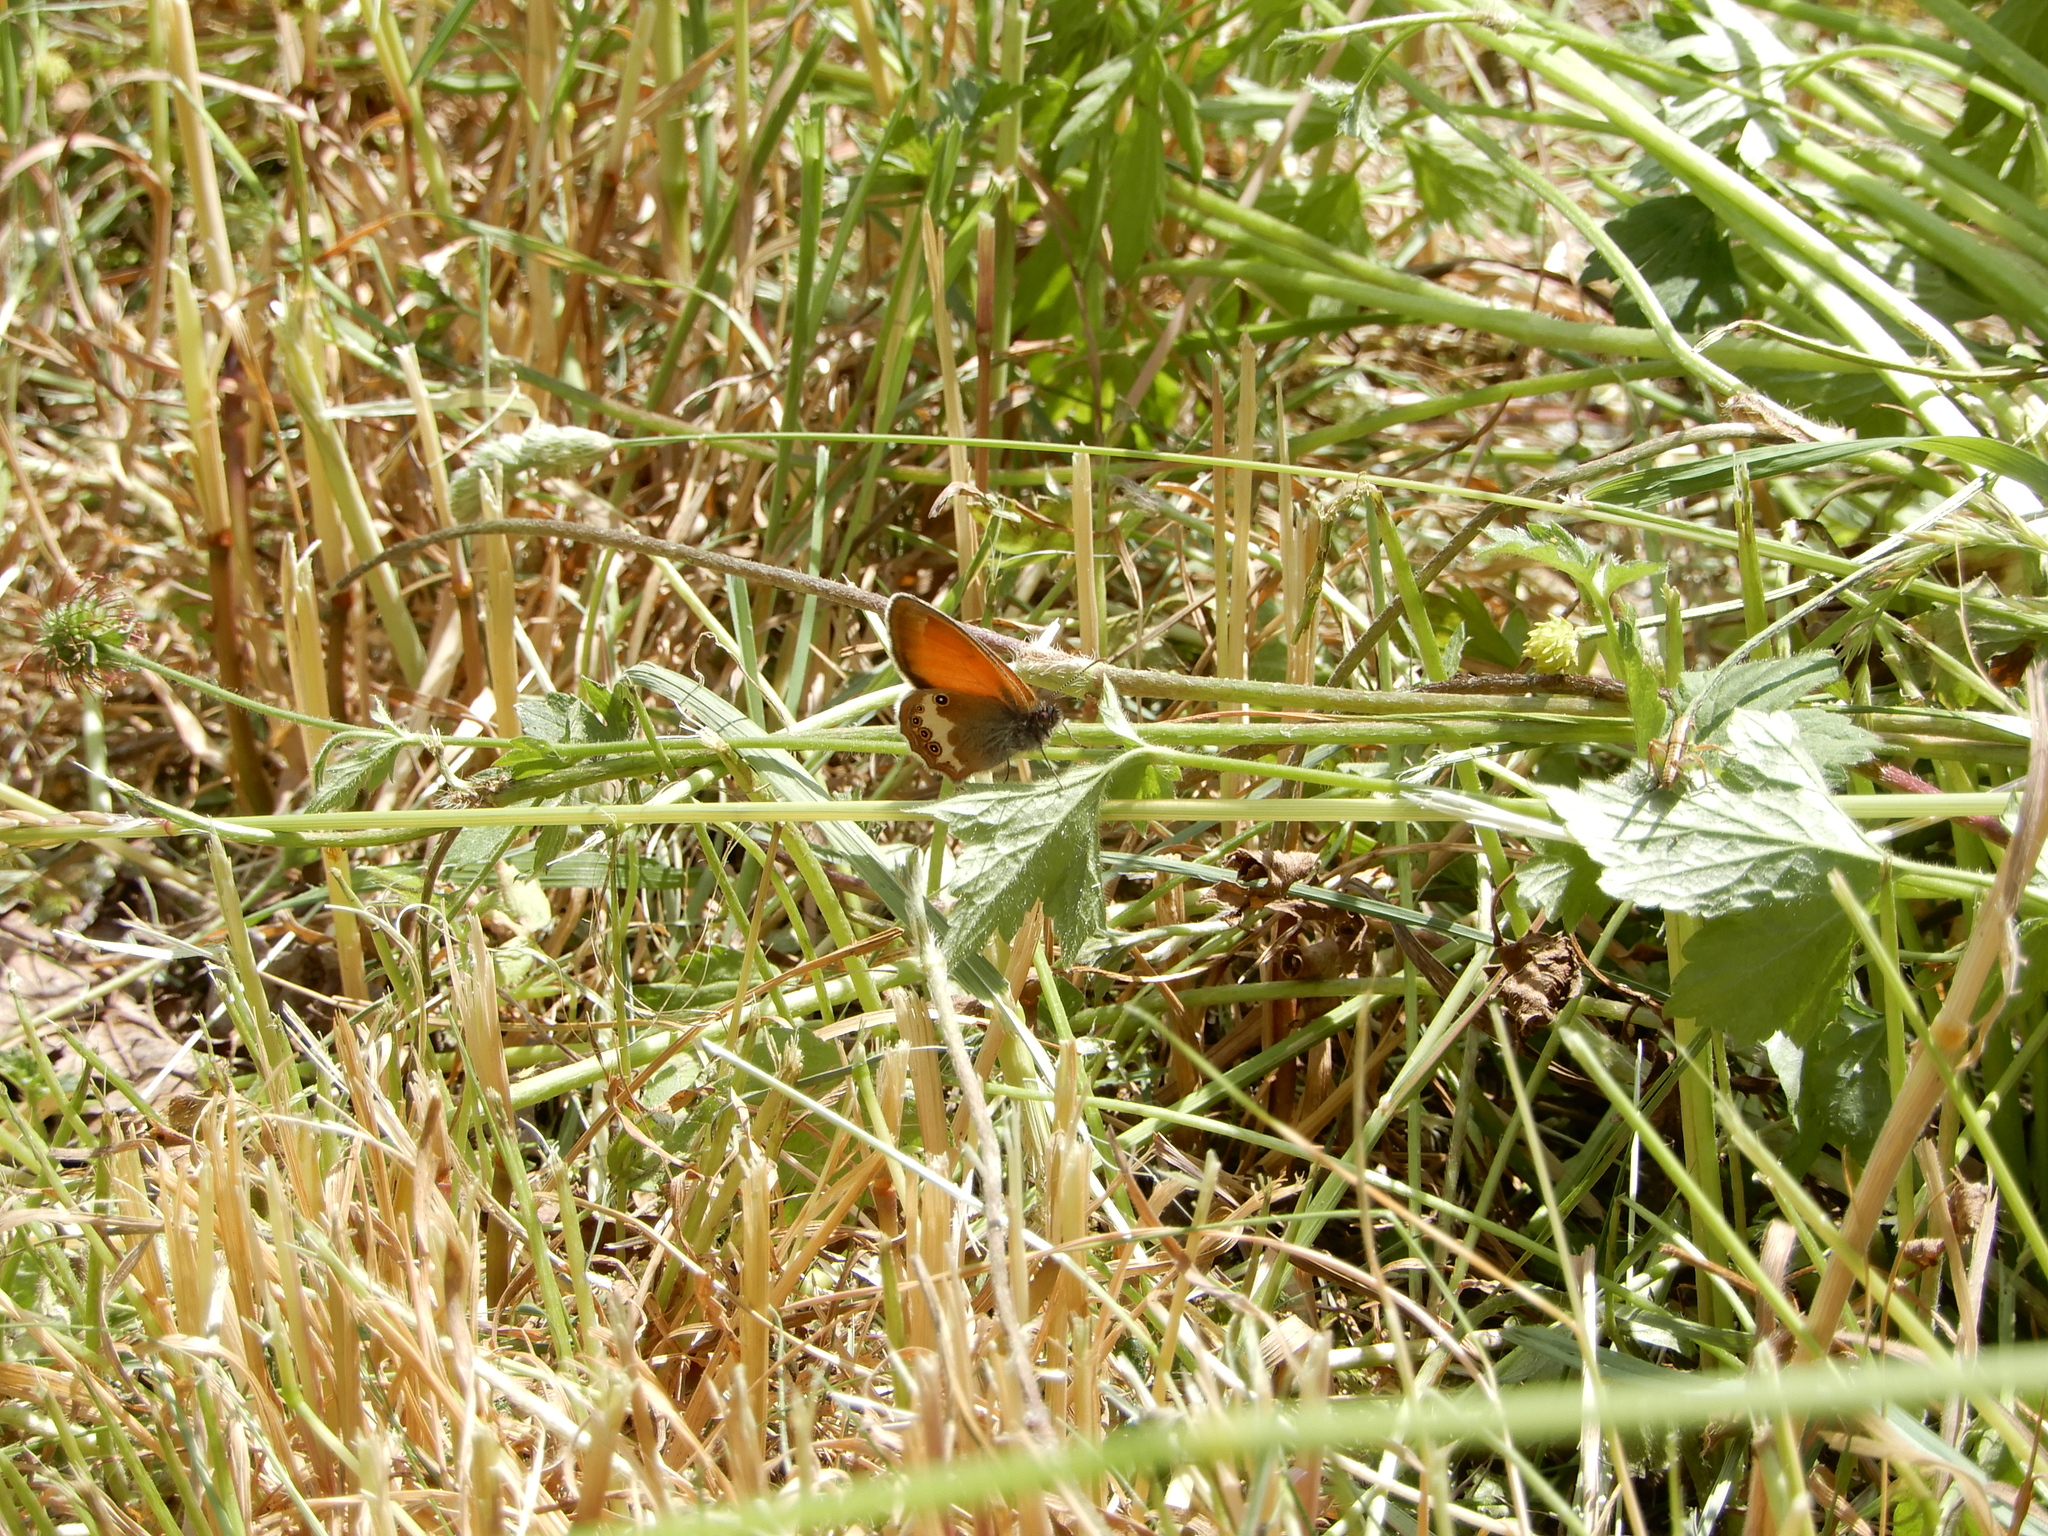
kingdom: Animalia
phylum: Arthropoda
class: Insecta
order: Lepidoptera
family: Nymphalidae
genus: Coenonympha
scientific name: Coenonympha arcania
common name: Pearly heath
